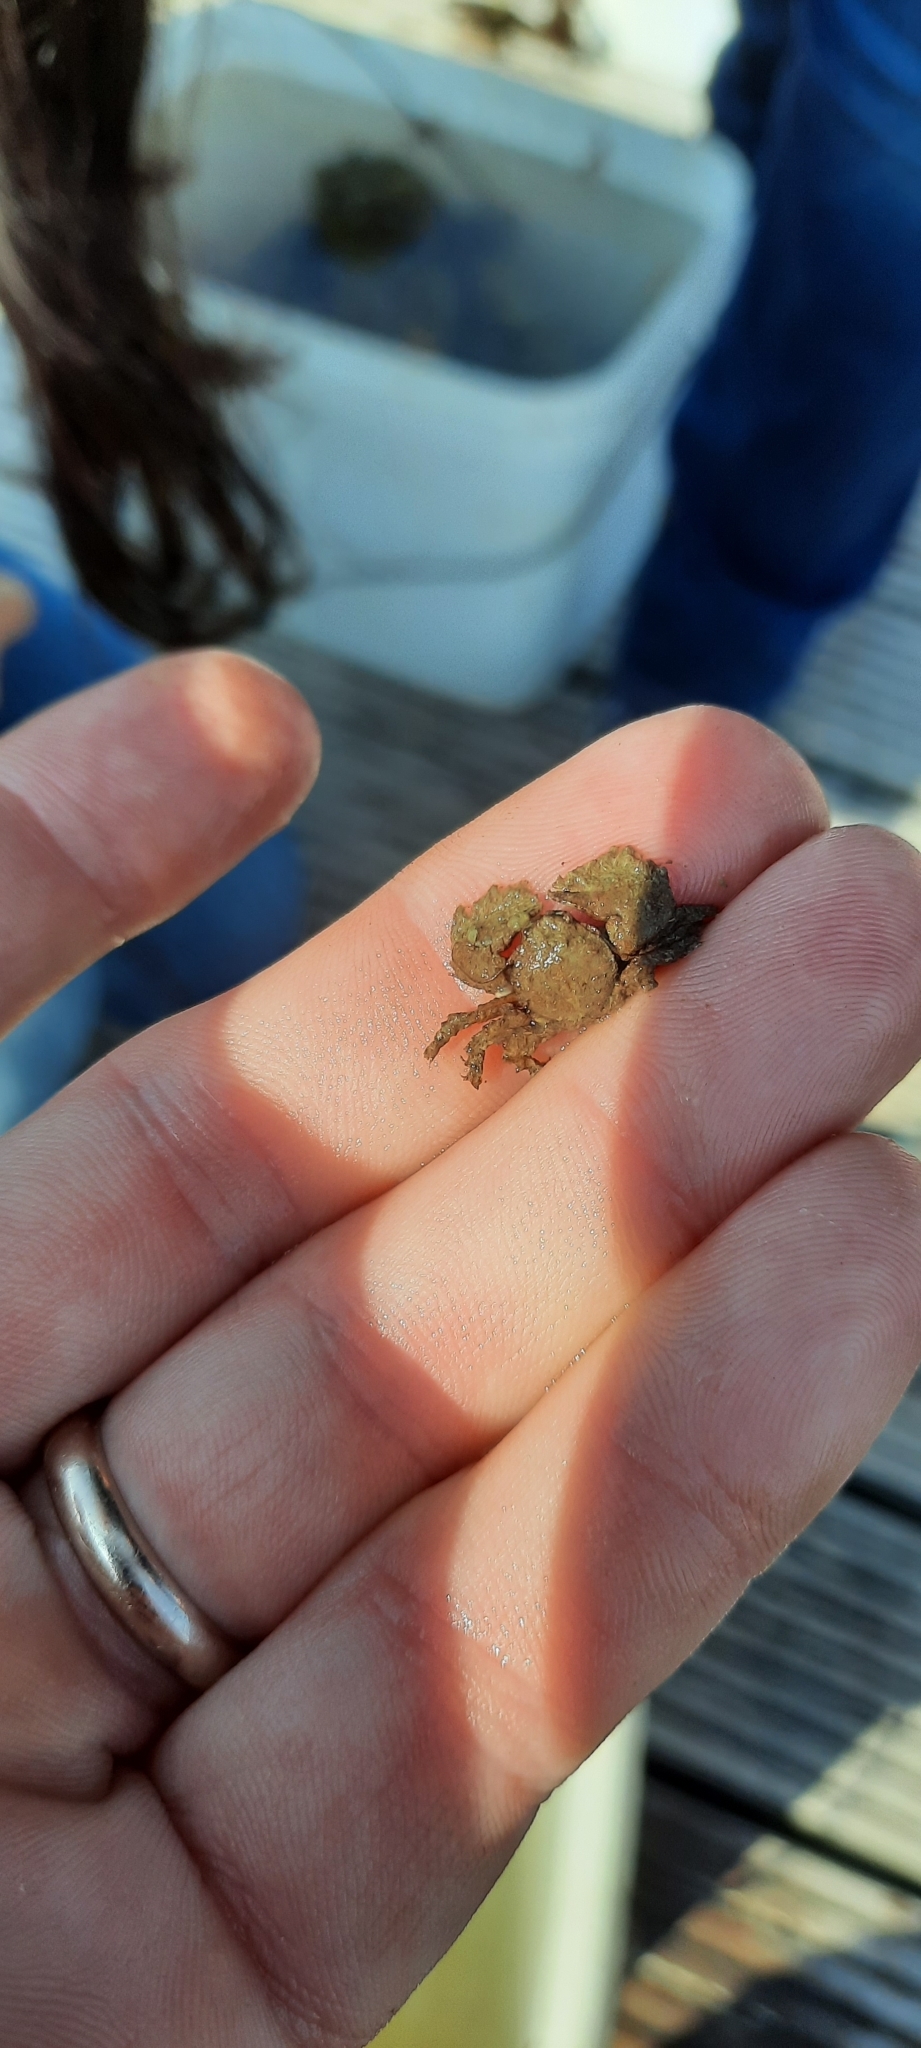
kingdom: Animalia
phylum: Arthropoda
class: Malacostraca
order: Decapoda
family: Porcellanidae
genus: Porcellana
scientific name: Porcellana platycheles
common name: Porcelain crab
